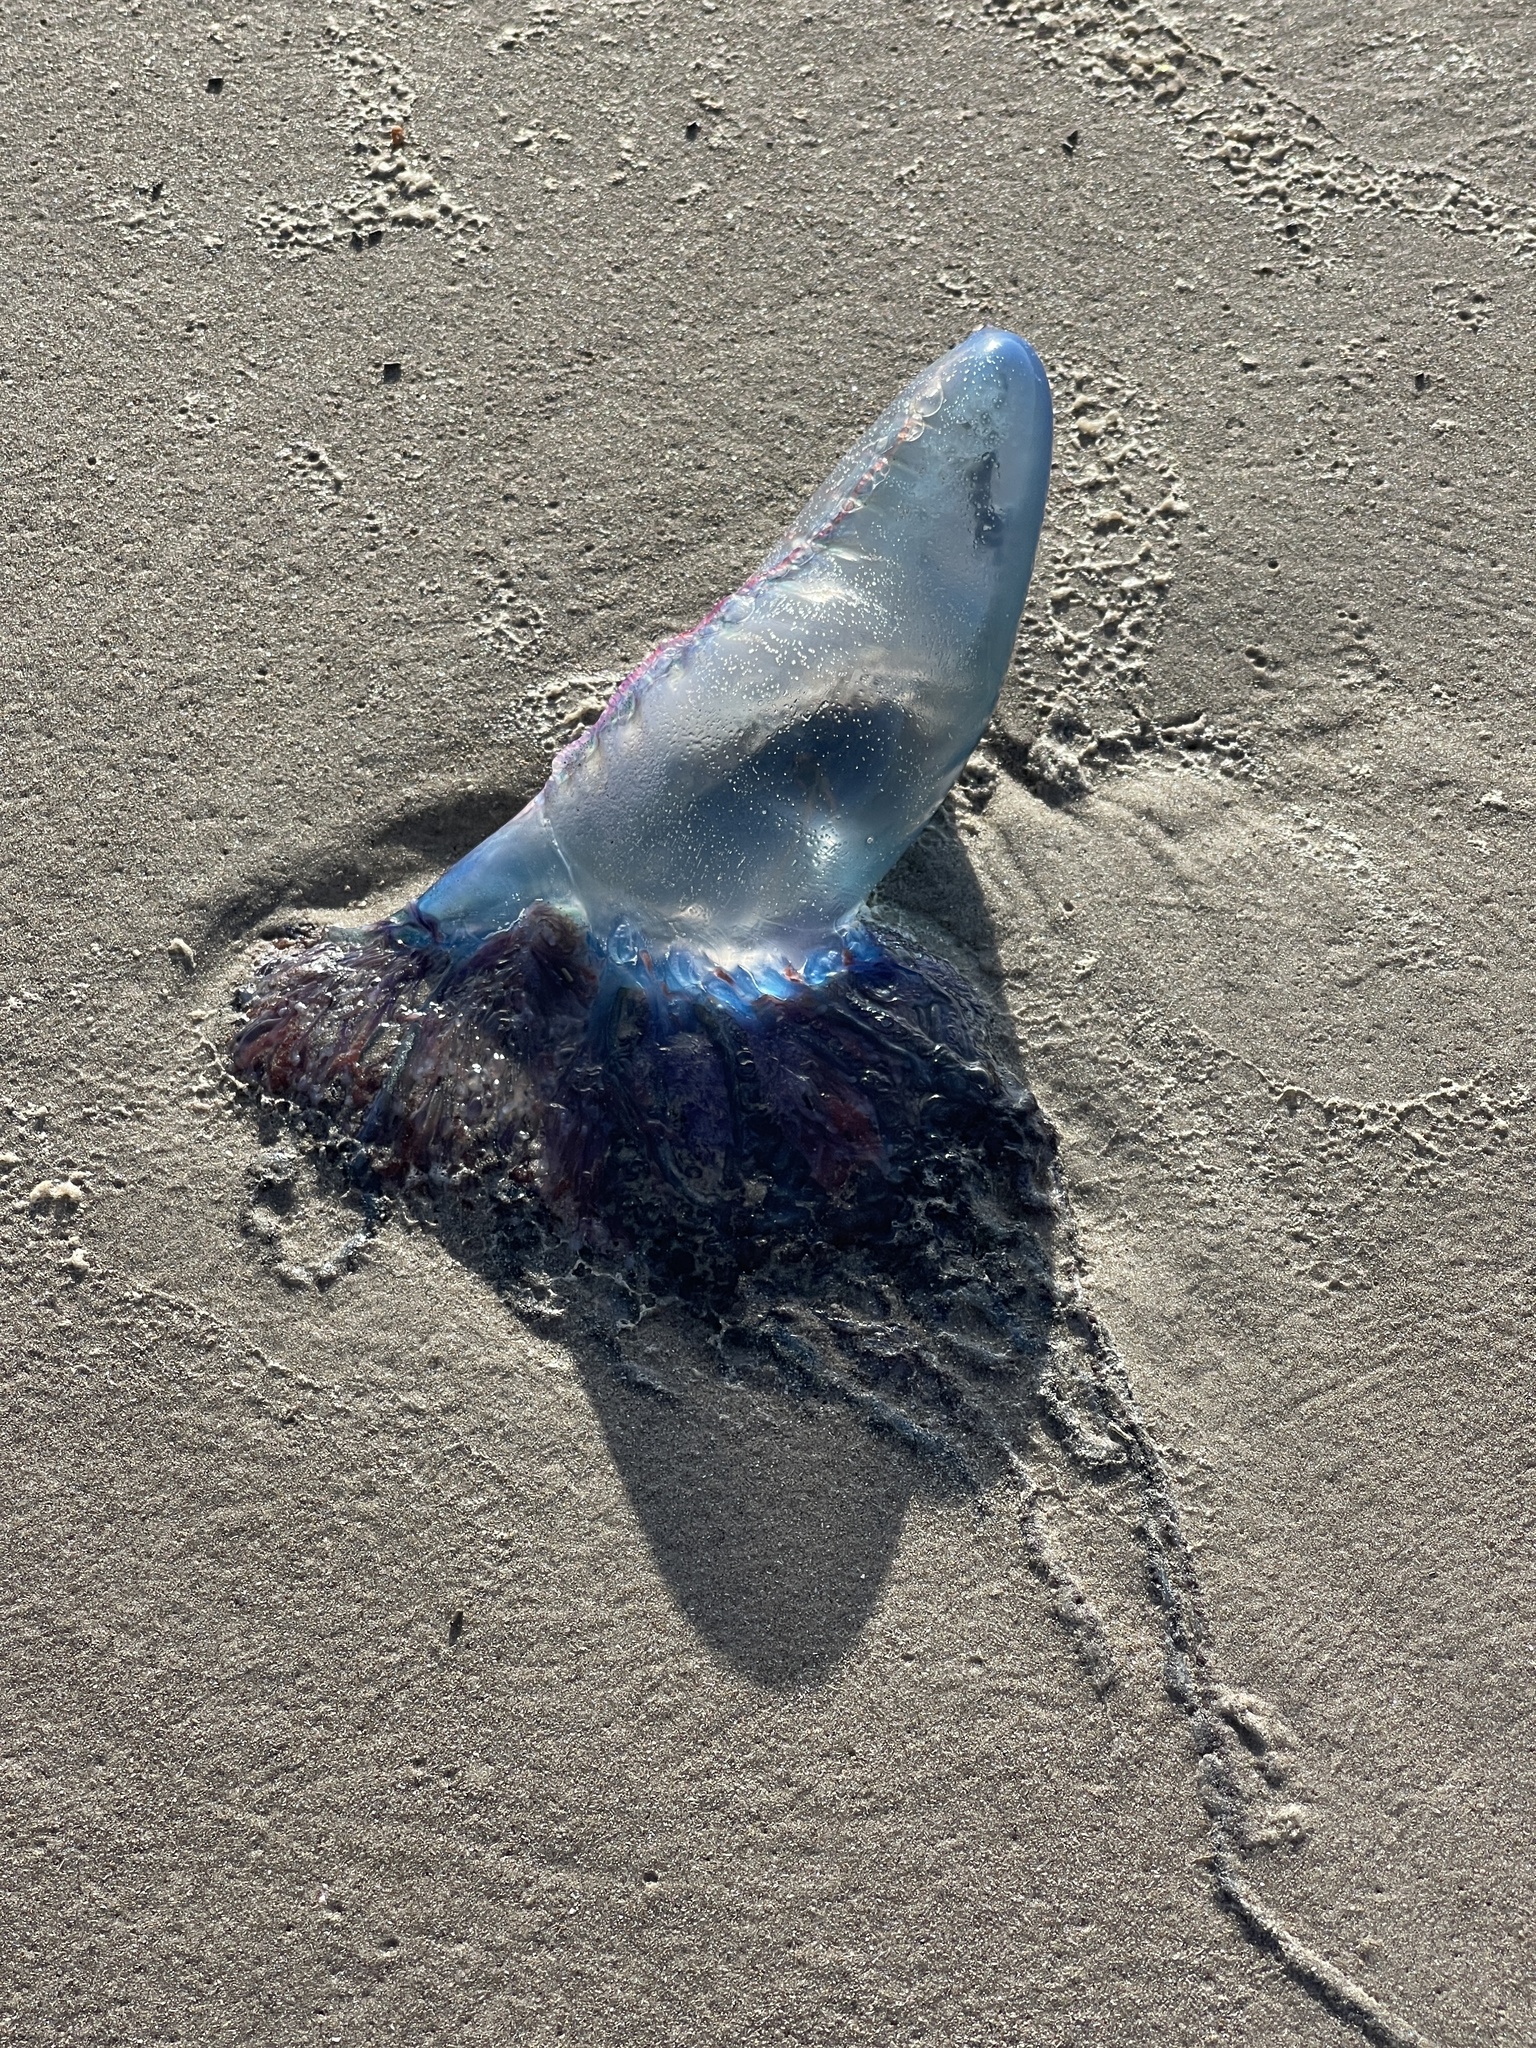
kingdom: Animalia
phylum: Cnidaria
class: Hydrozoa
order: Siphonophorae
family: Physaliidae
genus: Physalia
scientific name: Physalia physalis
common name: Portuguese man-of-war
